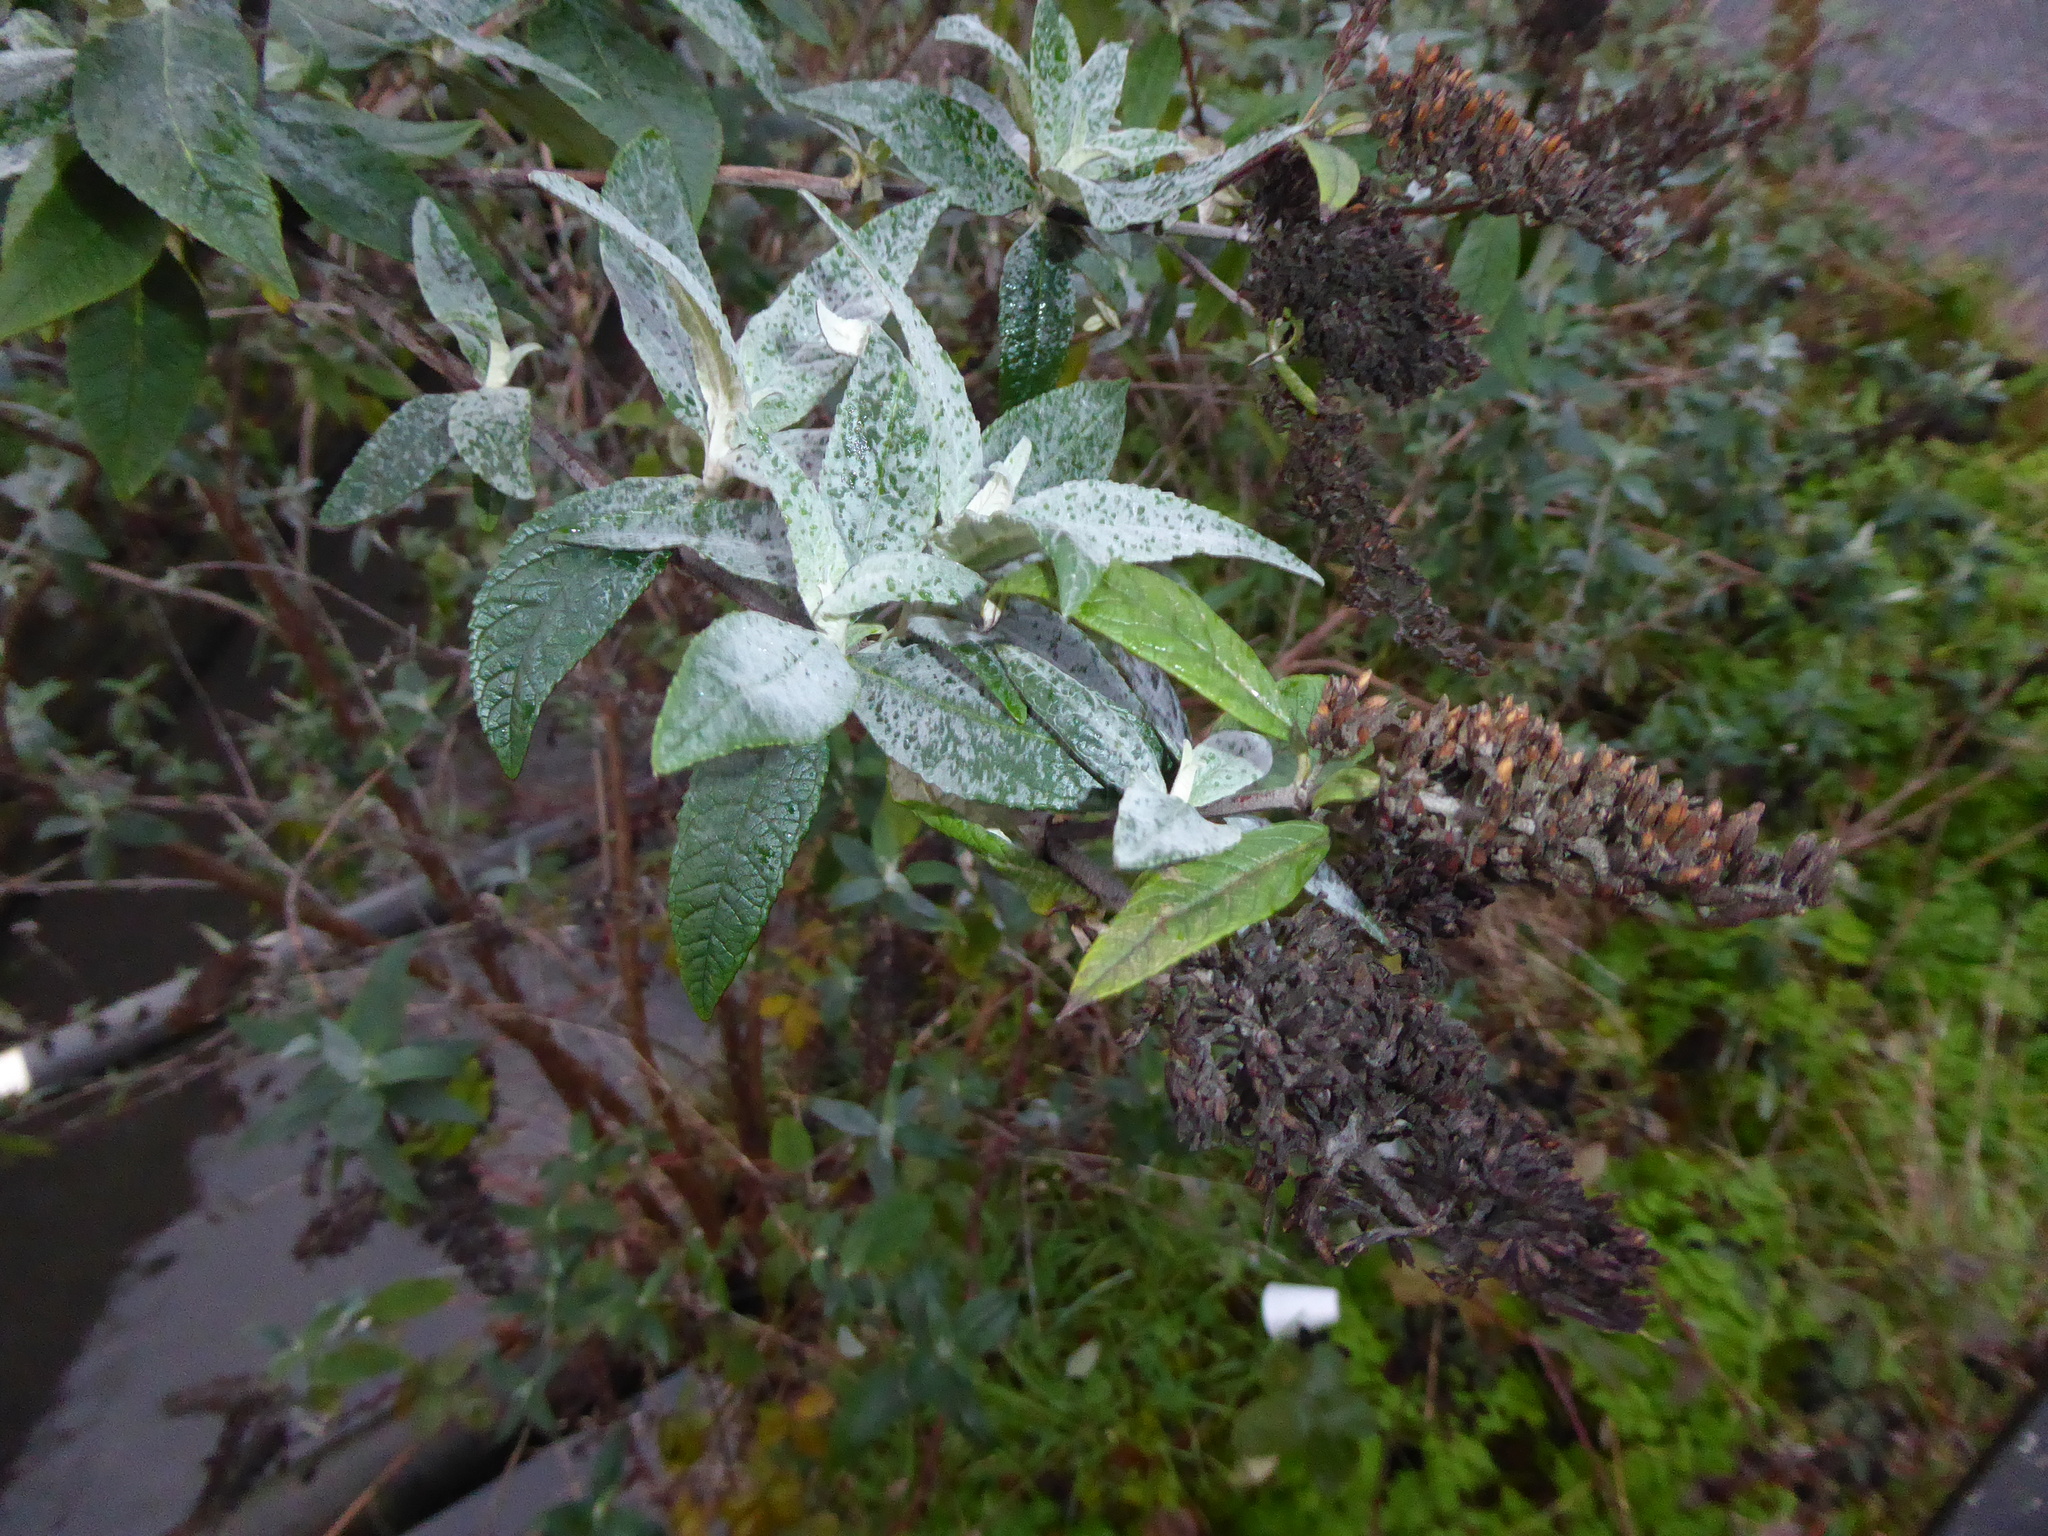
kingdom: Plantae
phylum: Tracheophyta
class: Magnoliopsida
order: Lamiales
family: Scrophulariaceae
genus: Buddleja
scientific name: Buddleja davidii
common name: Butterfly-bush
